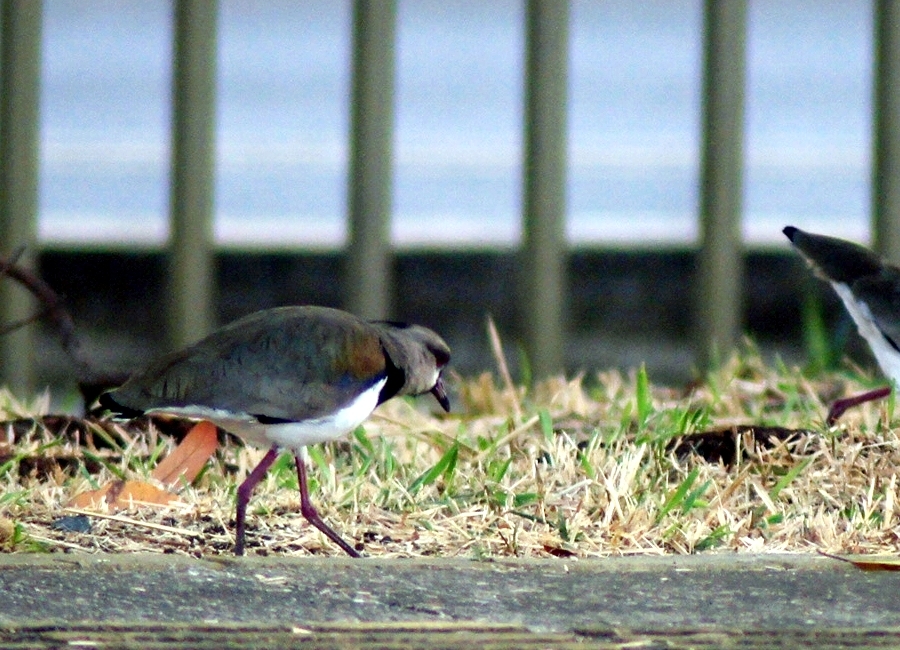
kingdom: Animalia
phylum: Chordata
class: Aves
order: Charadriiformes
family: Charadriidae
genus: Vanellus
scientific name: Vanellus chilensis
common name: Southern lapwing
